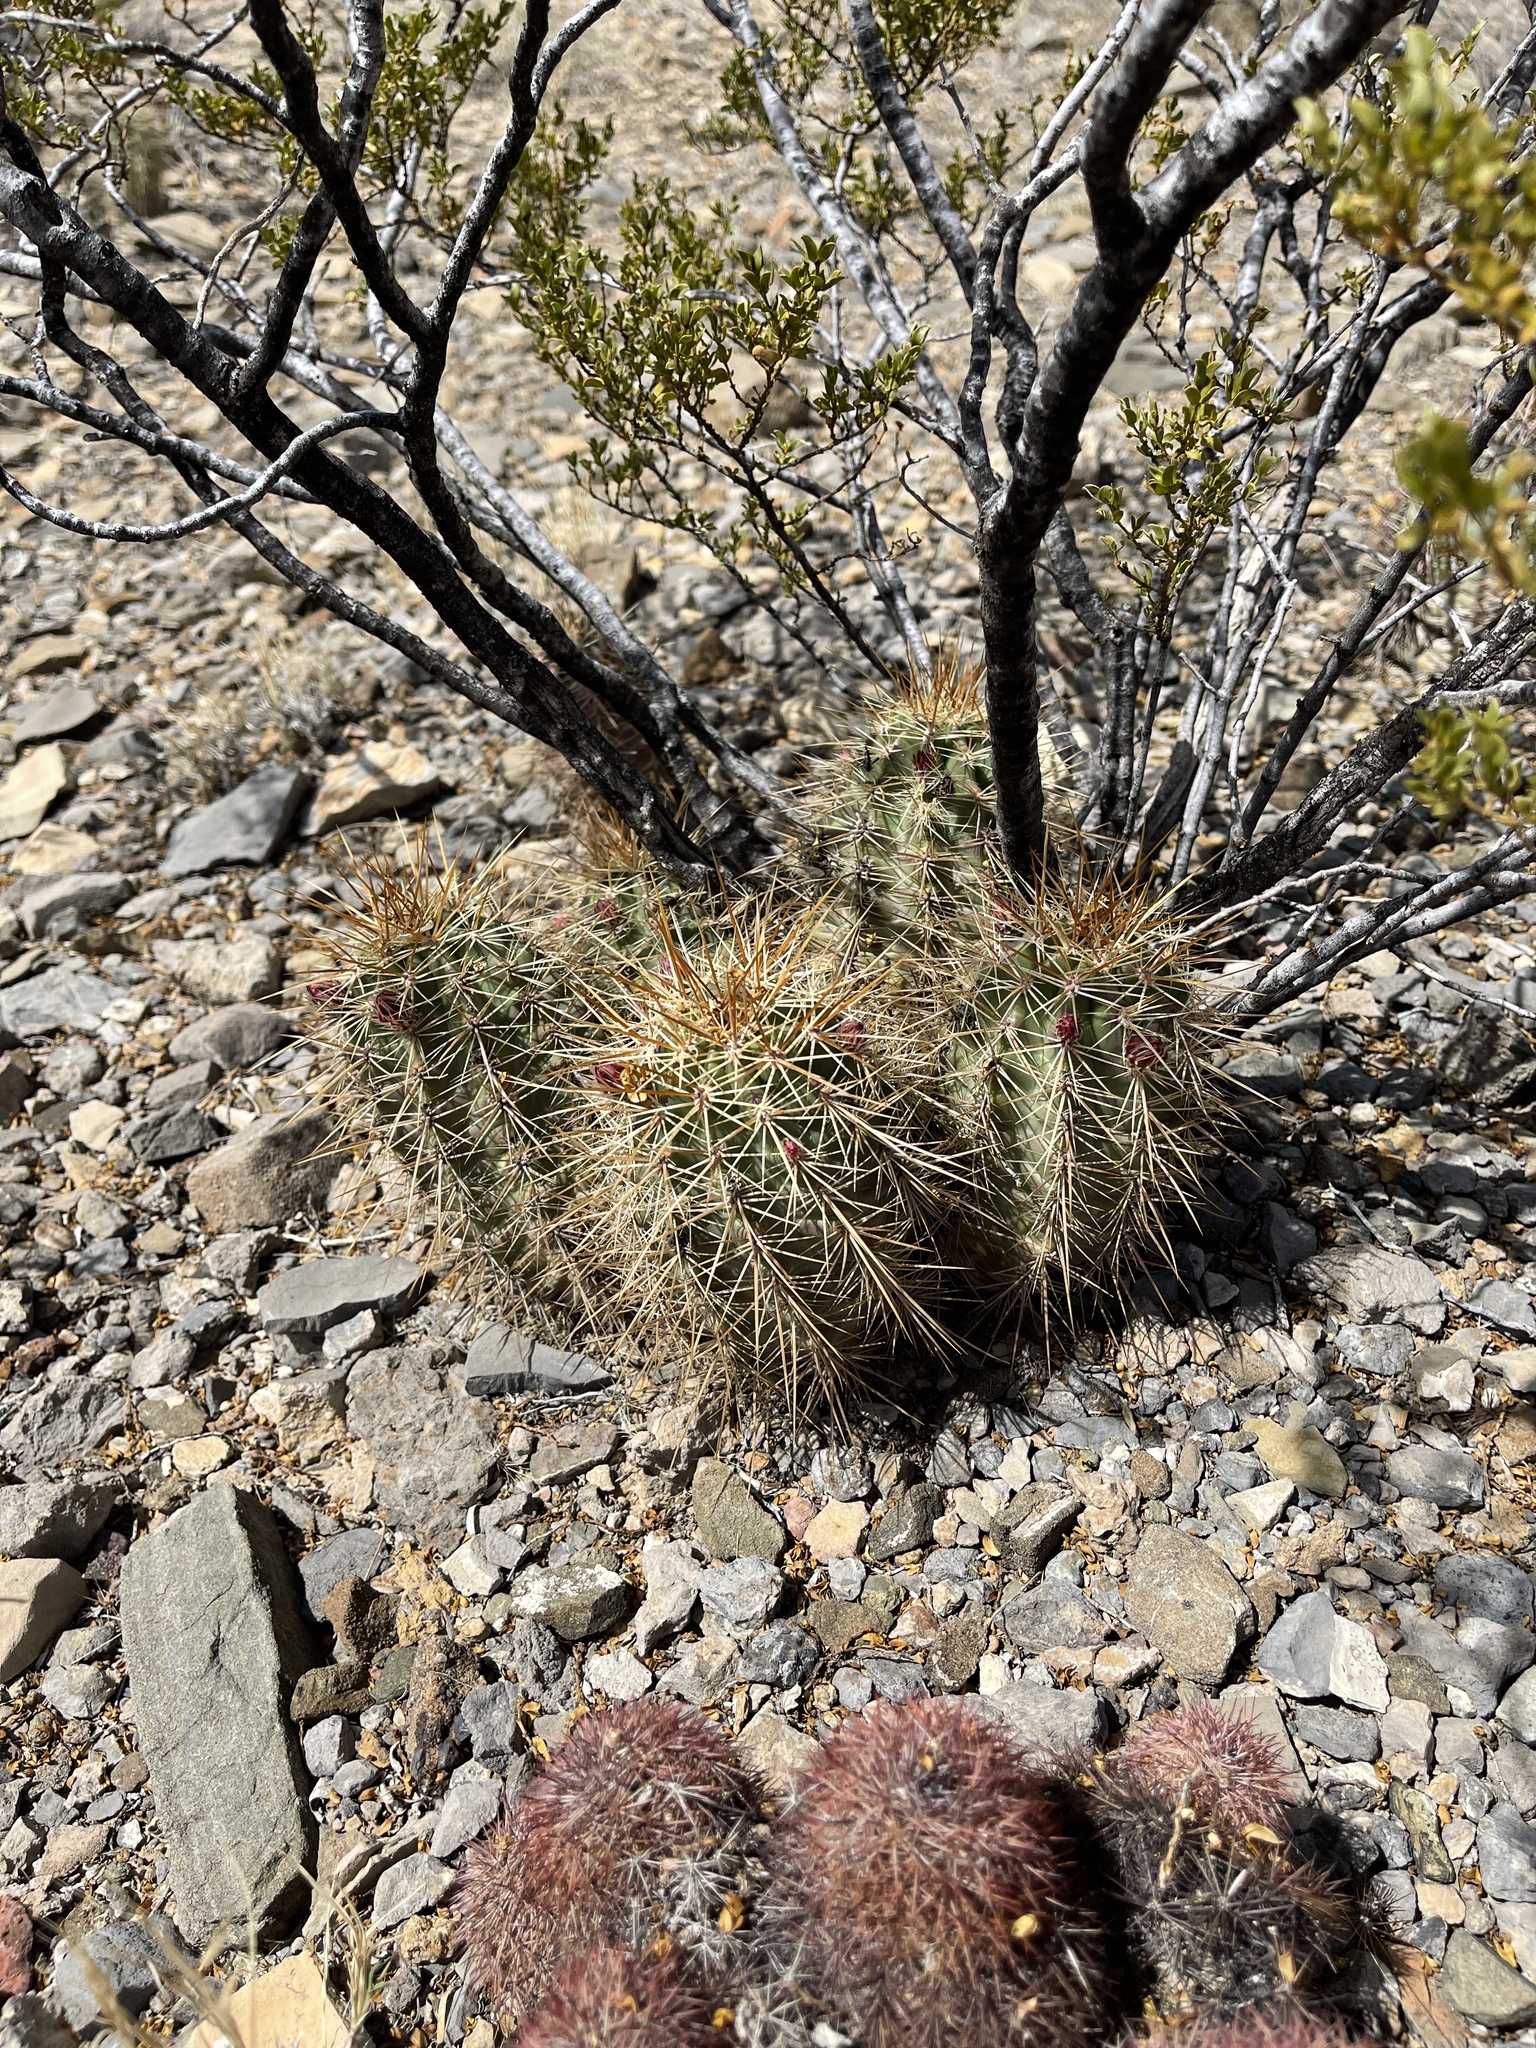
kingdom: Plantae
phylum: Tracheophyta
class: Magnoliopsida
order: Caryophyllales
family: Cactaceae
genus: Echinocereus
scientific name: Echinocereus coccineus
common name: Scarlet hedgehog cactus
